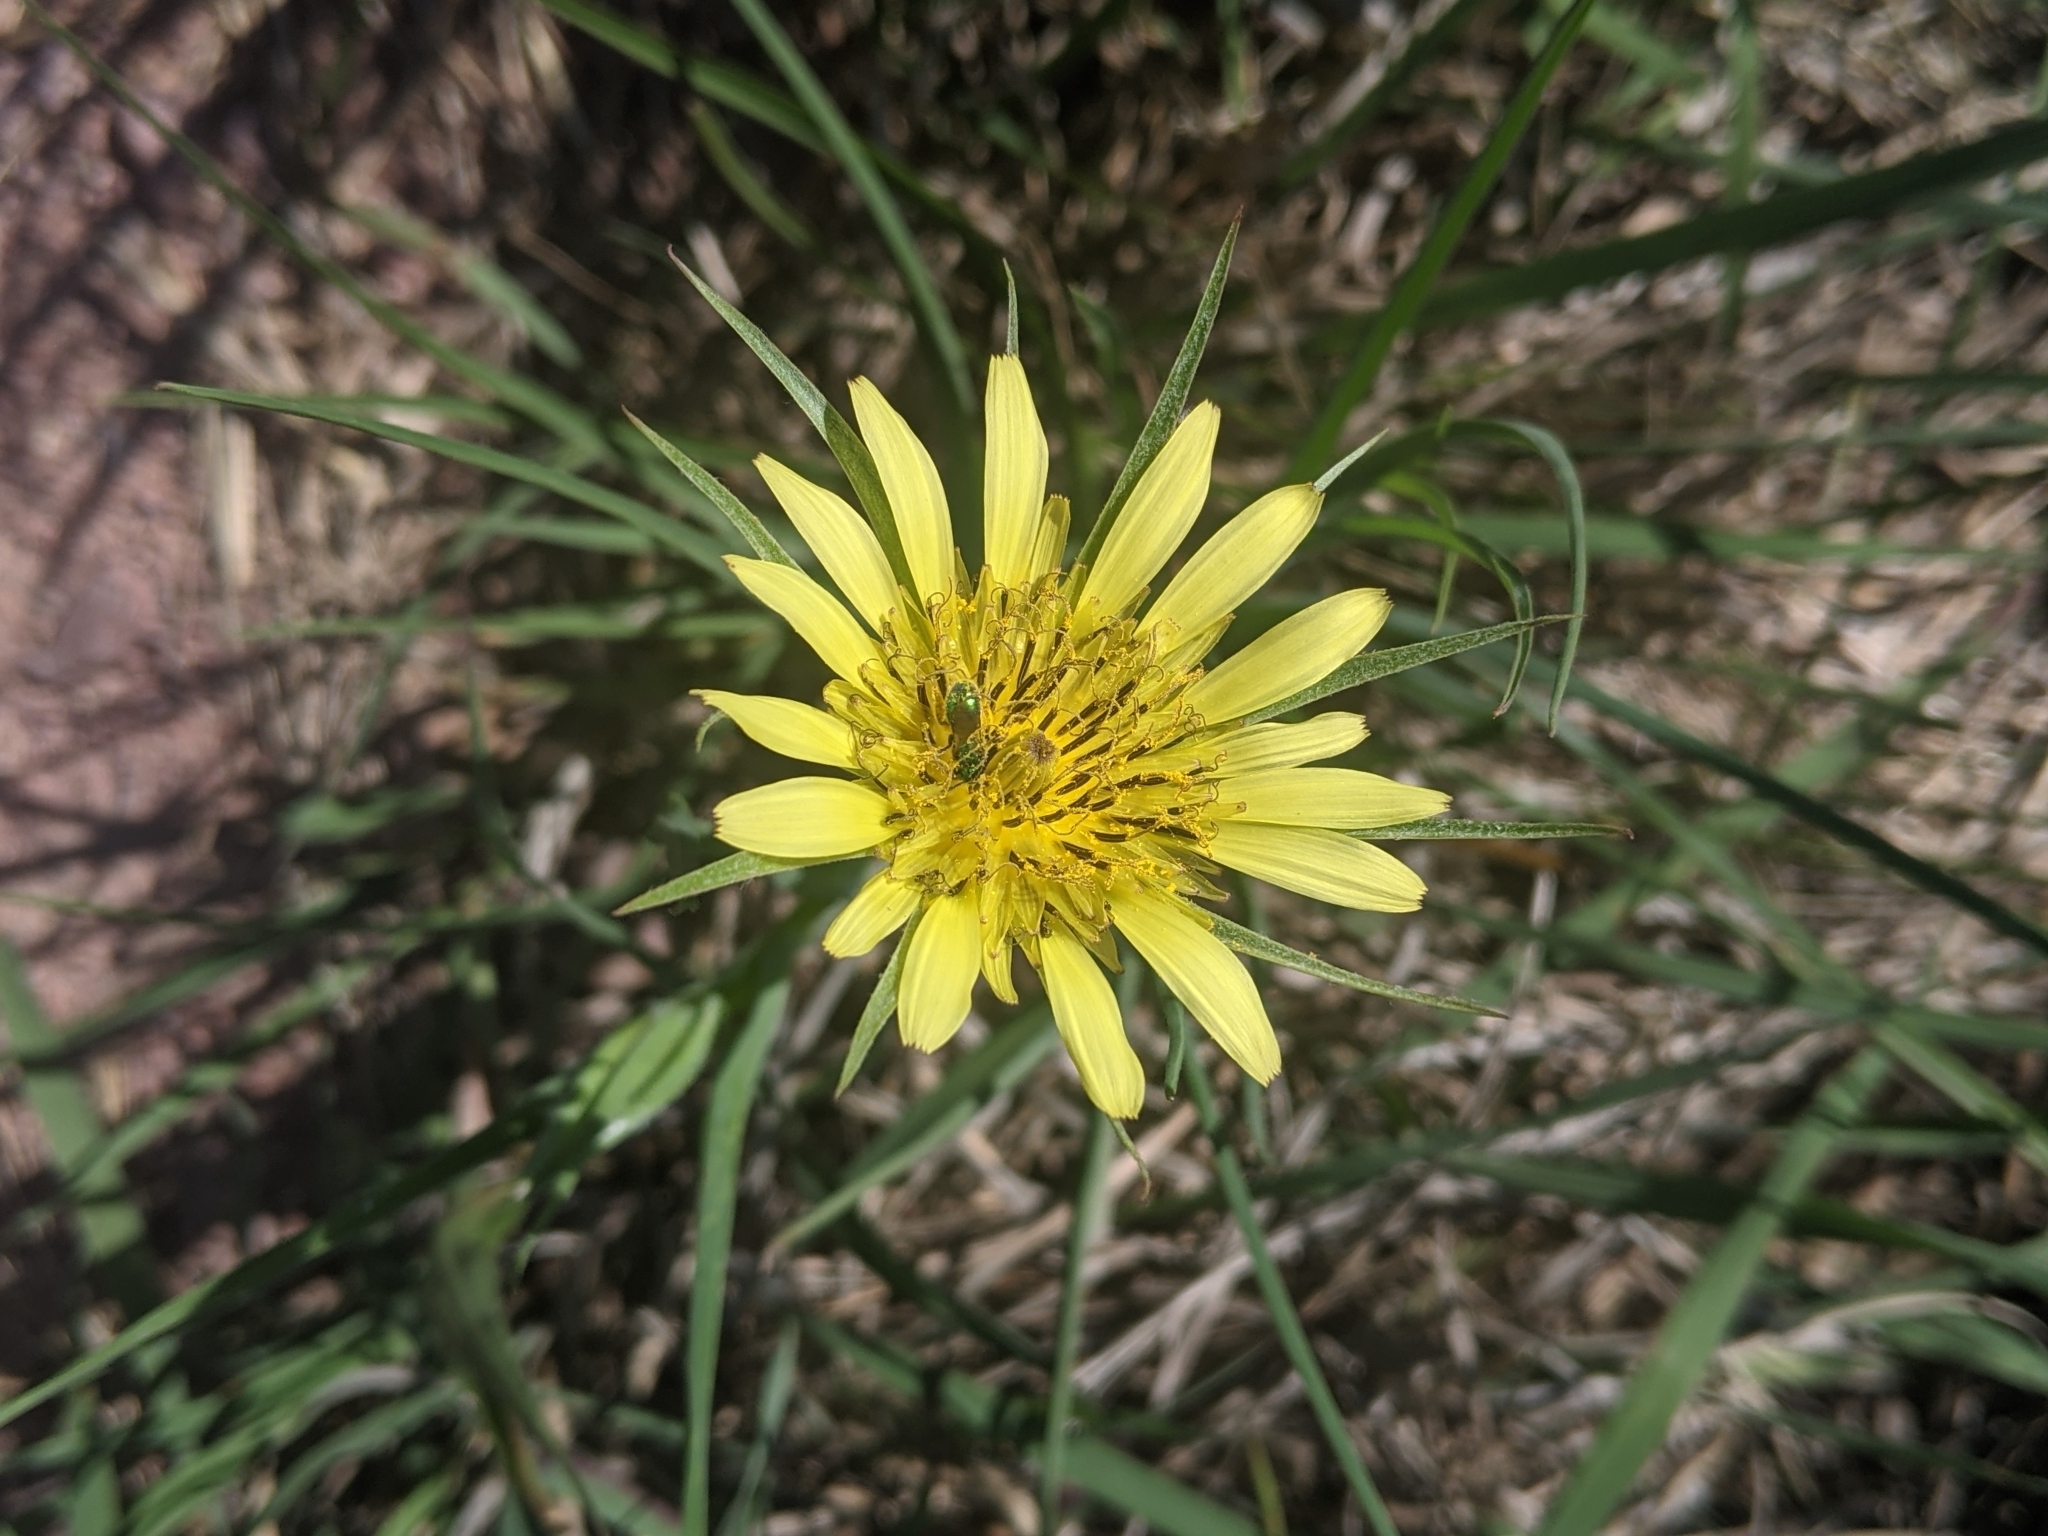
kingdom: Plantae
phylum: Tracheophyta
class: Magnoliopsida
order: Asterales
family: Asteraceae
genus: Tragopogon
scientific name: Tragopogon dubius
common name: Yellow salsify
